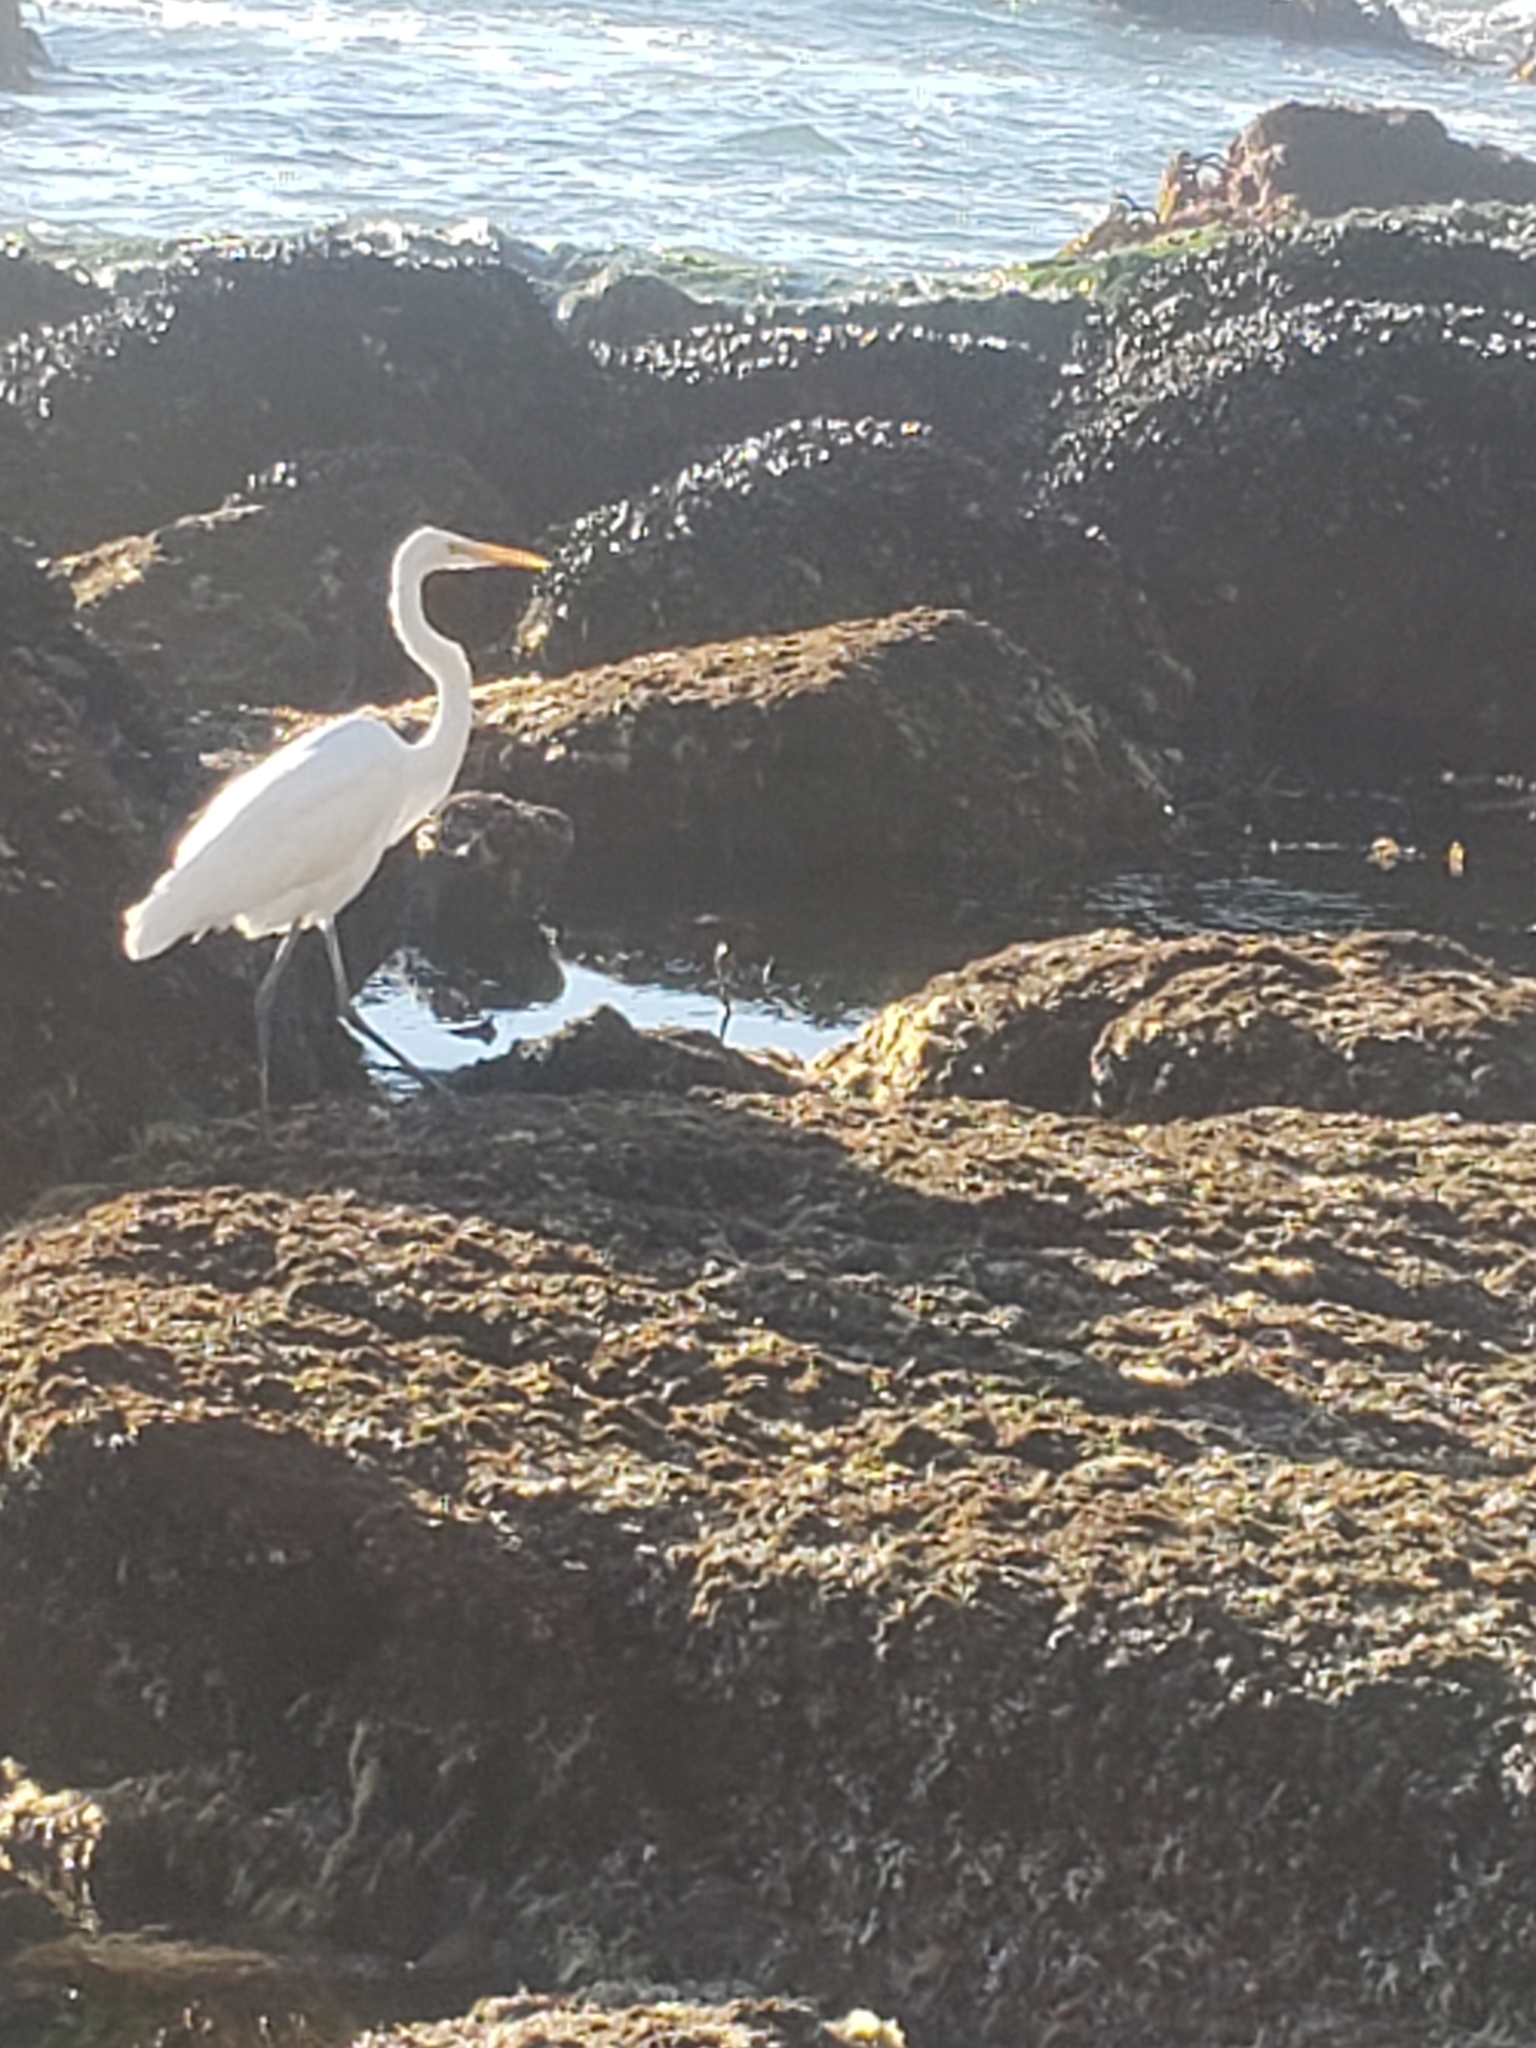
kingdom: Animalia
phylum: Chordata
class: Aves
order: Pelecaniformes
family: Ardeidae
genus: Ardea
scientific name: Ardea alba
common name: Great egret
